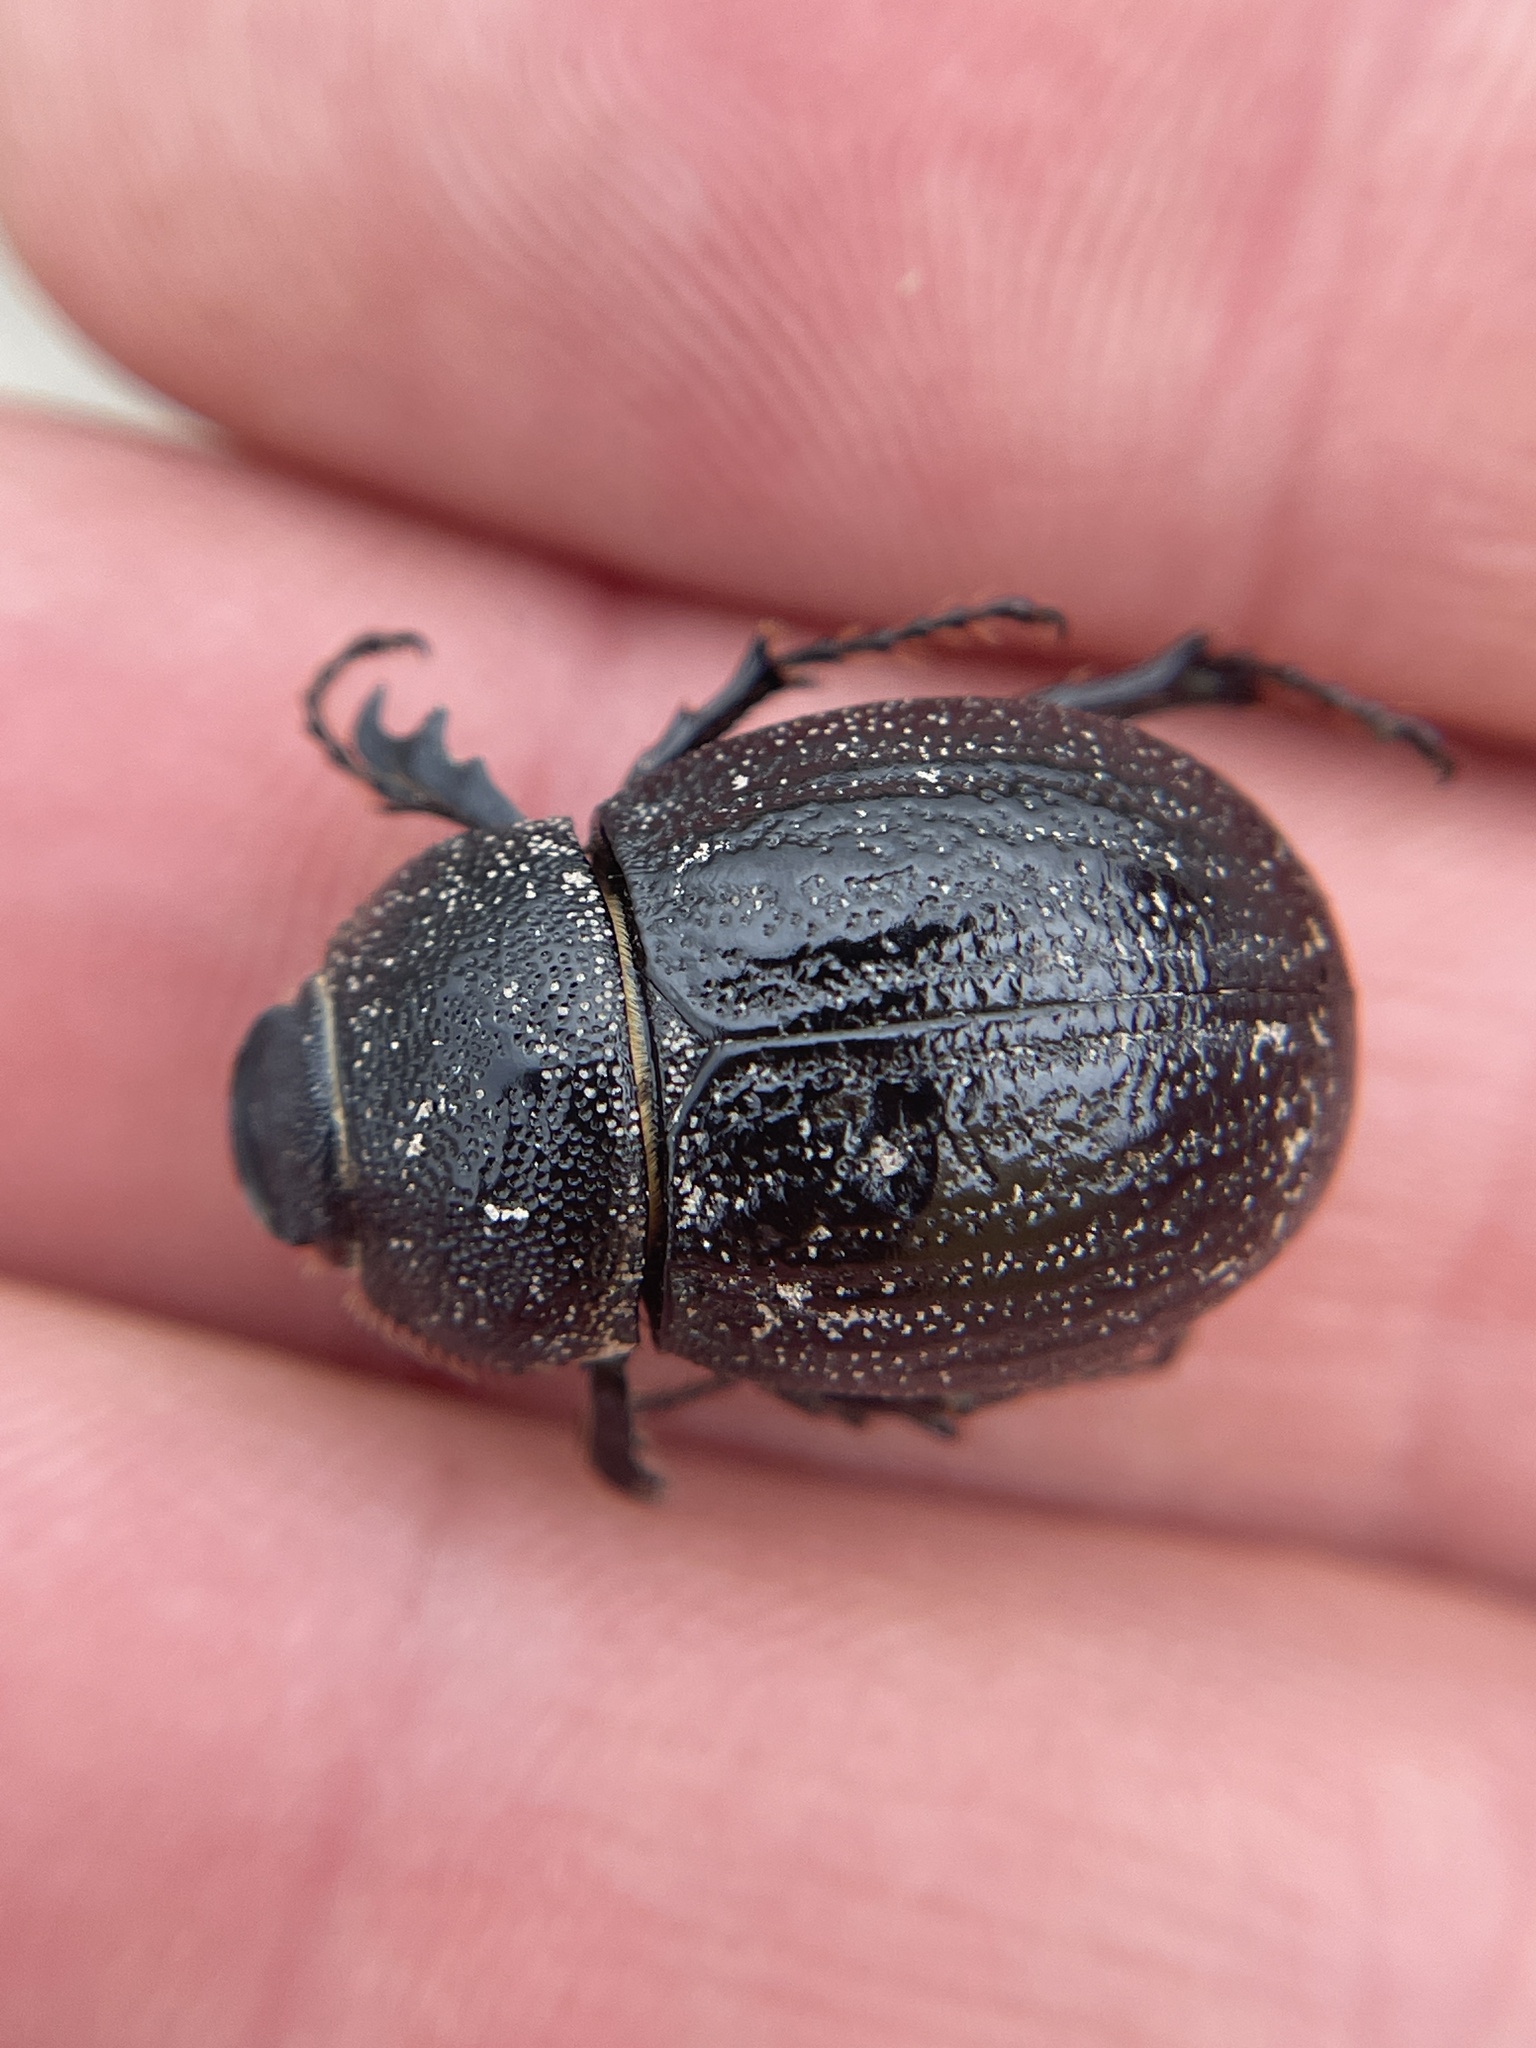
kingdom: Animalia
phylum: Arthropoda
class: Insecta
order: Coleoptera
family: Scarabaeidae
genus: Phyllophaga
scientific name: Phyllophaga cribrosa
